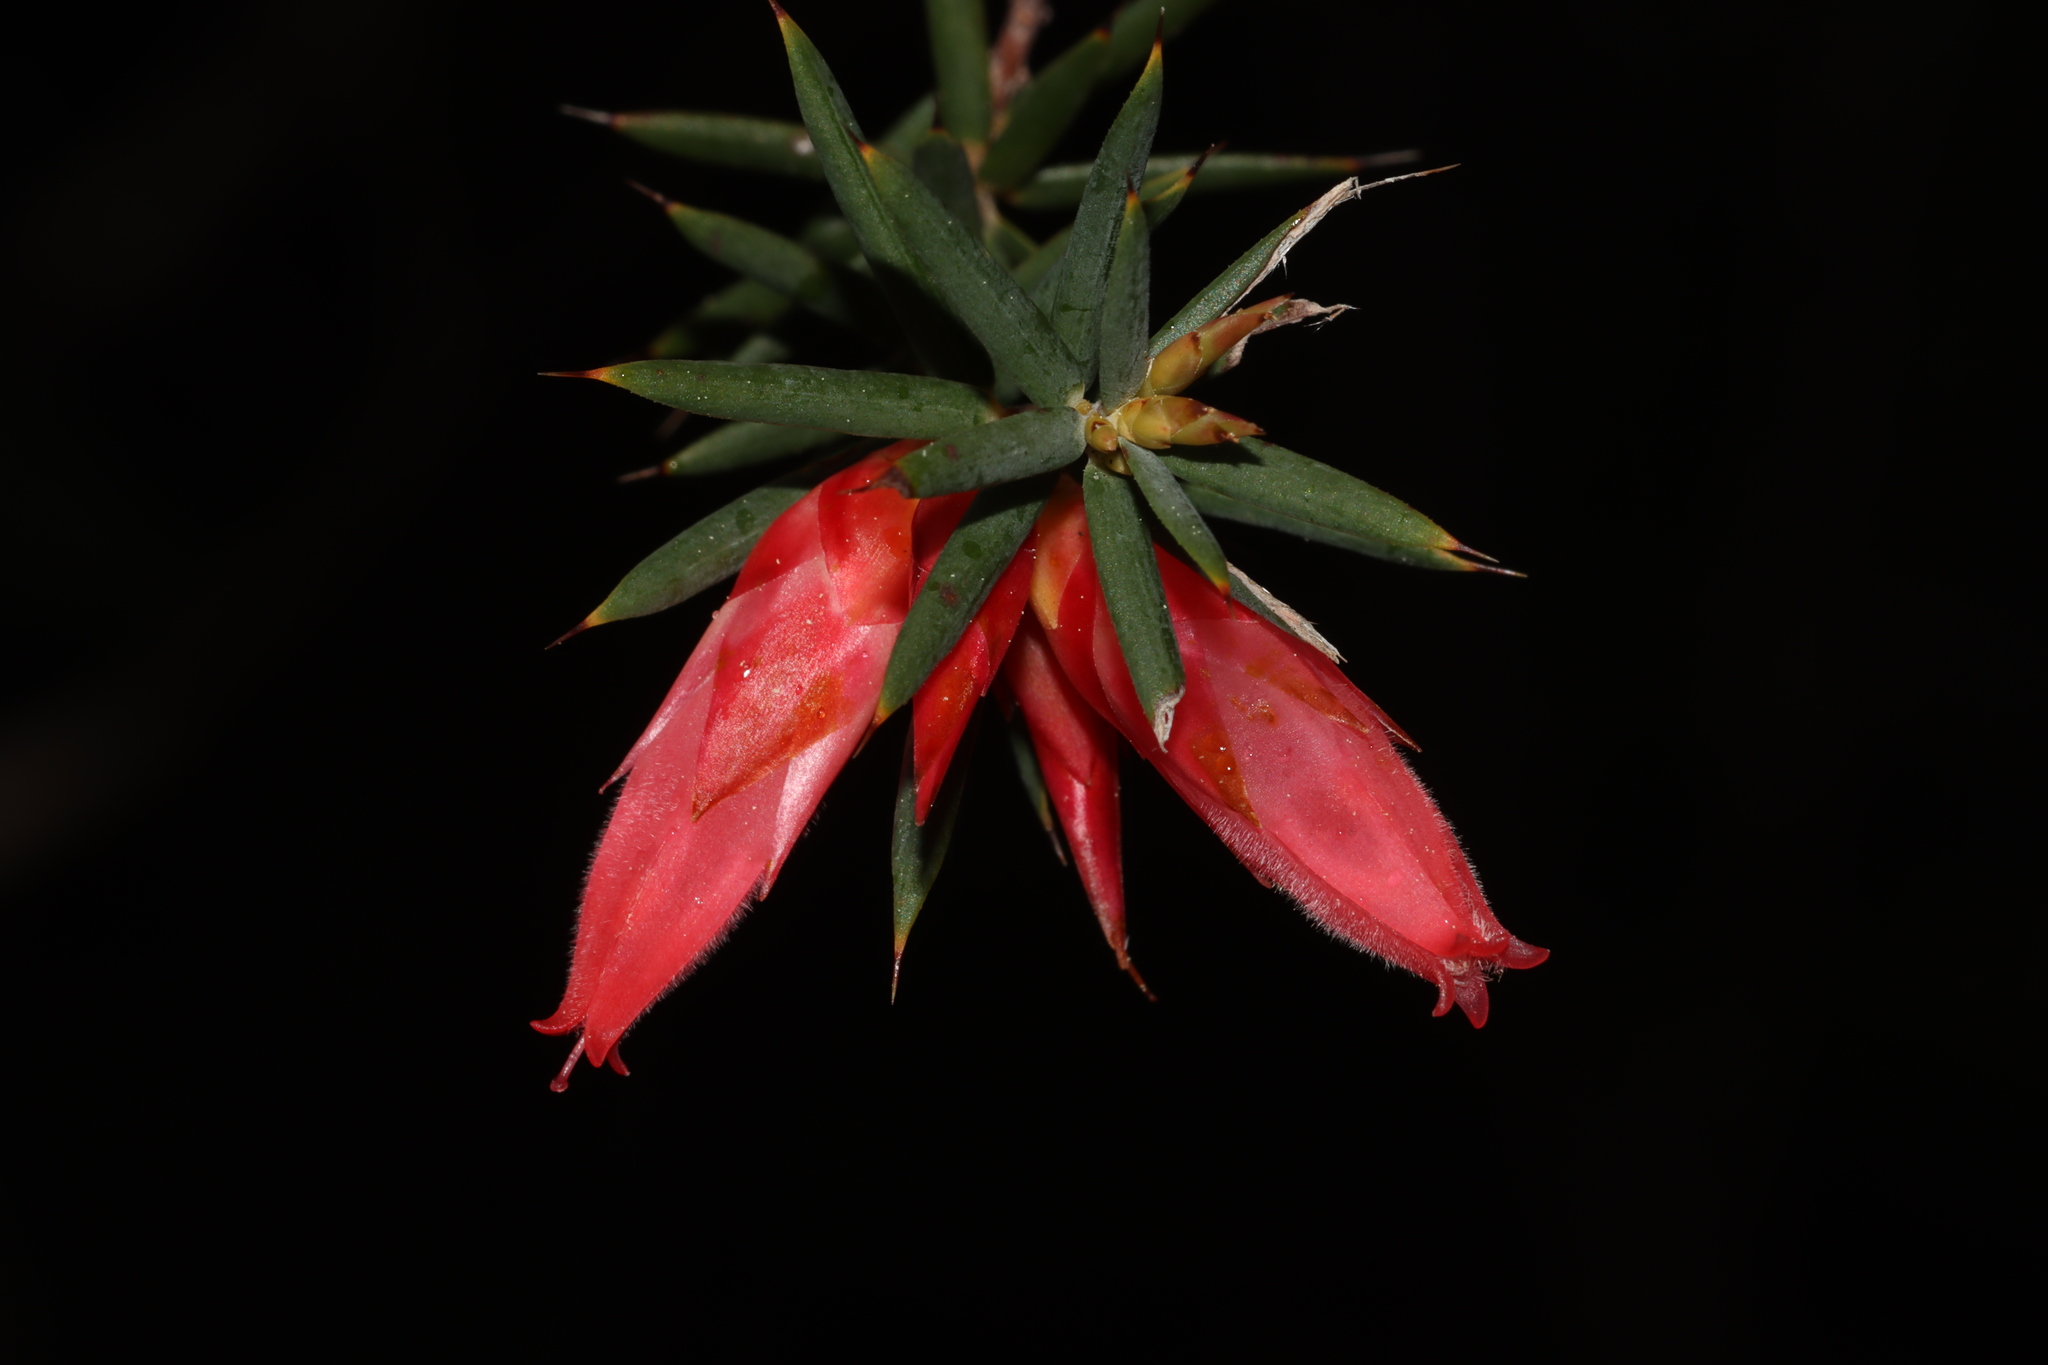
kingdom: Plantae
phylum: Tracheophyta
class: Magnoliopsida
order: Ericales
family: Ericaceae
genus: Stenanthera
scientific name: Stenanthera conostephioides
